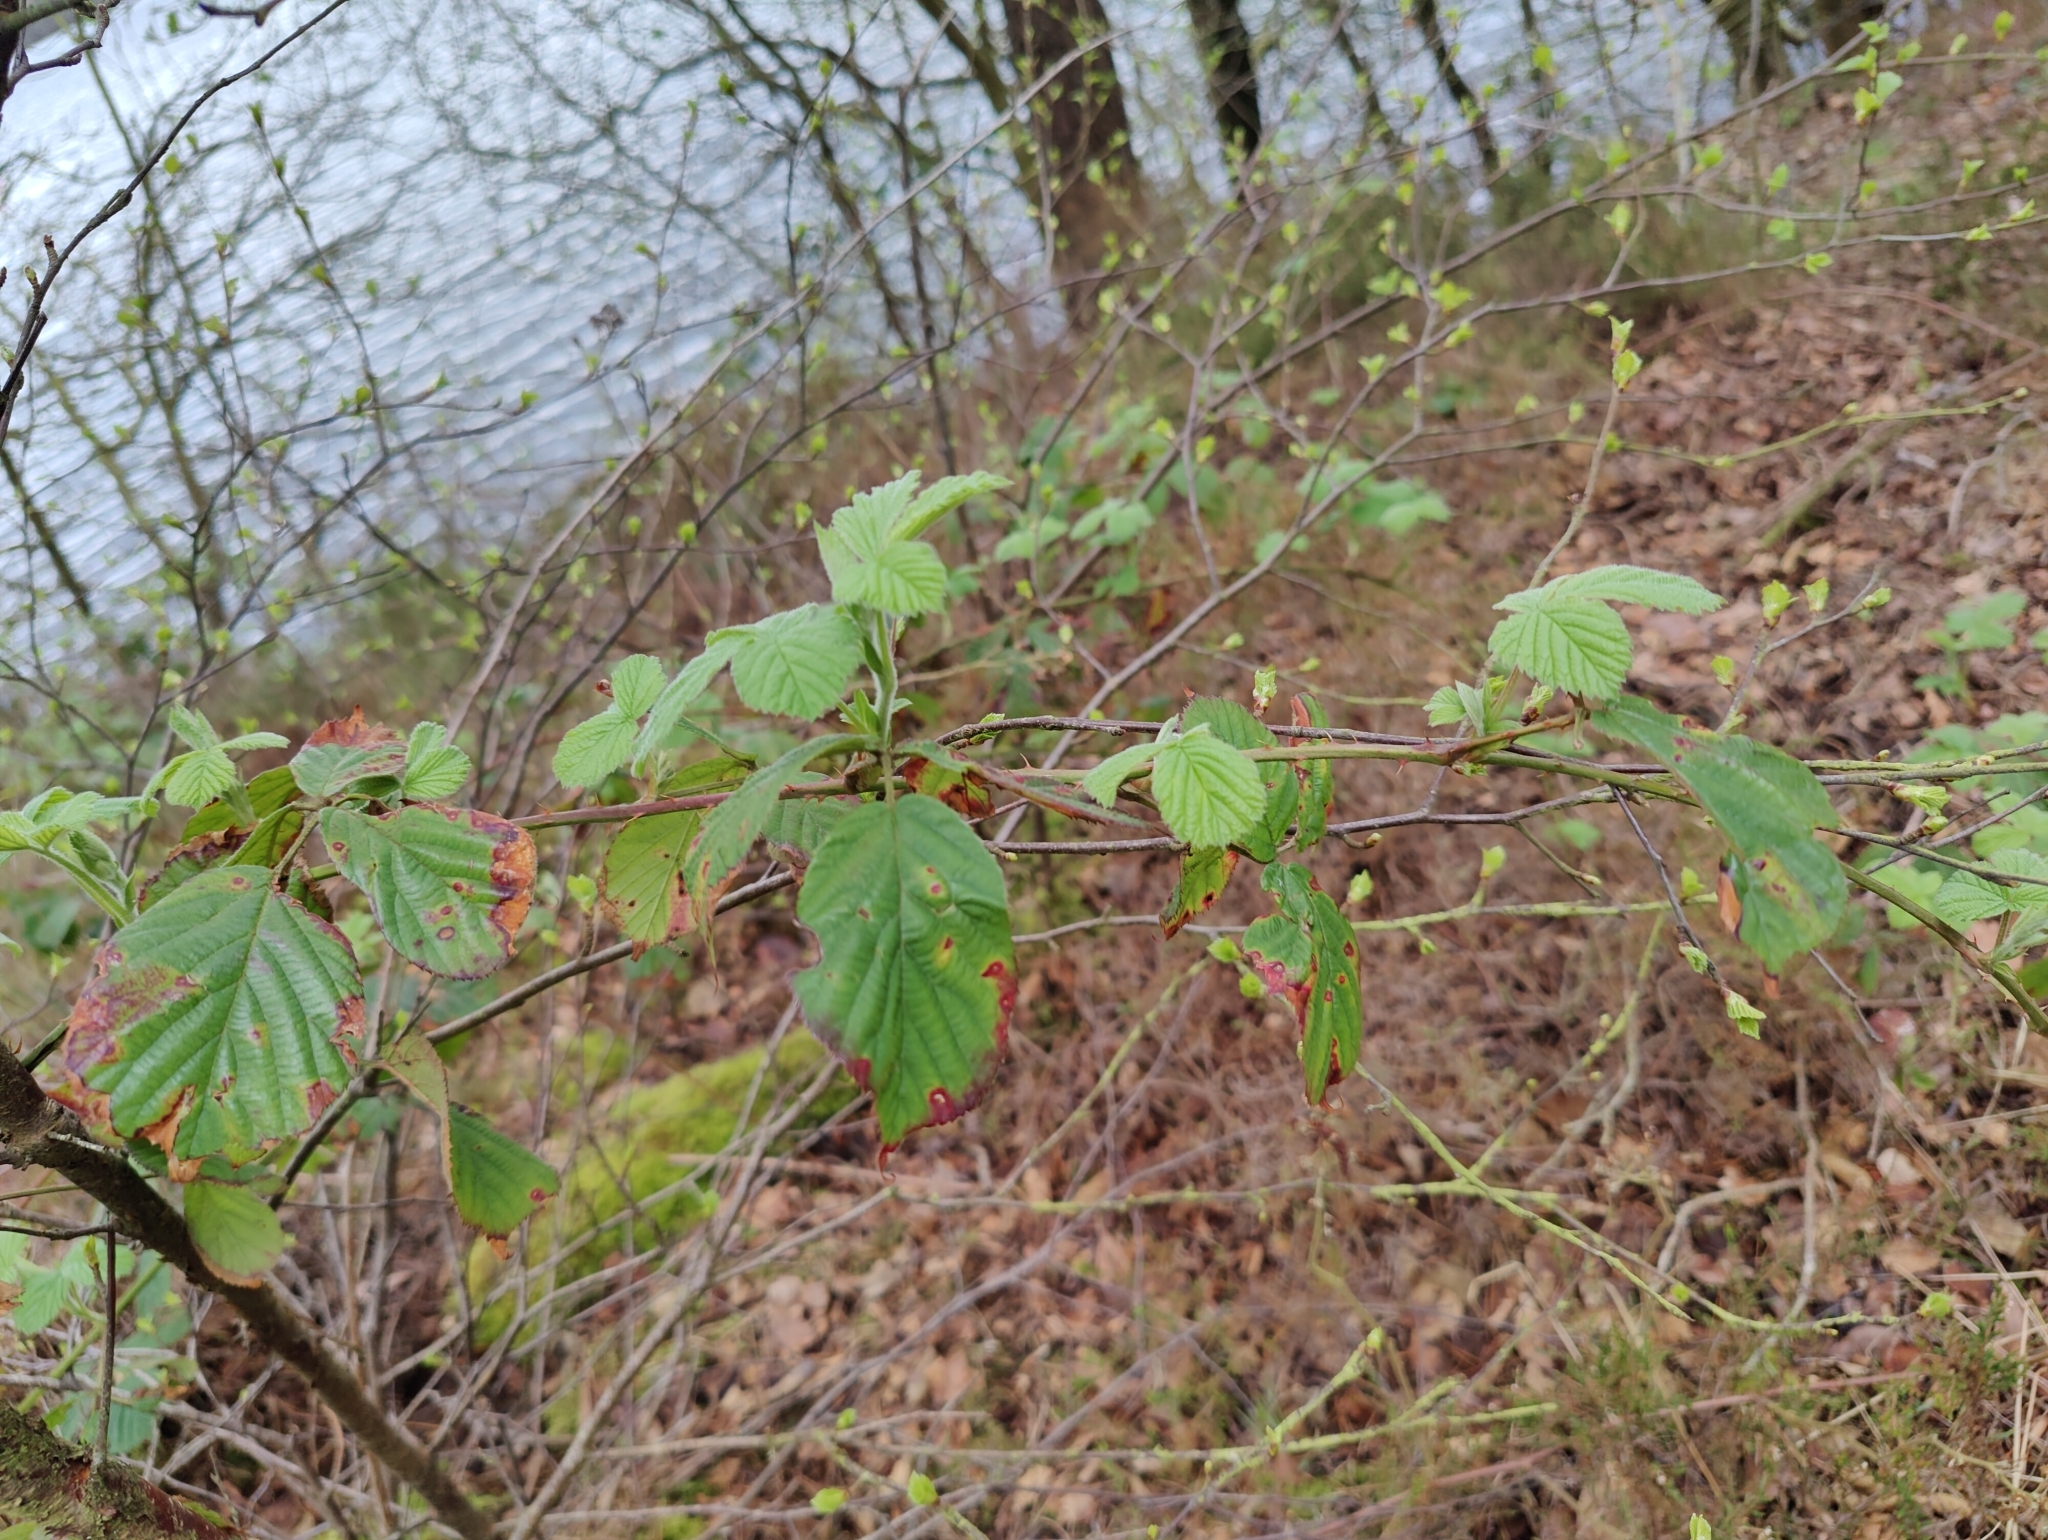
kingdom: Plantae
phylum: Tracheophyta
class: Magnoliopsida
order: Rosales
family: Rosaceae
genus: Rubus
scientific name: Rubus fruticosus
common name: Blackberry, bramble
